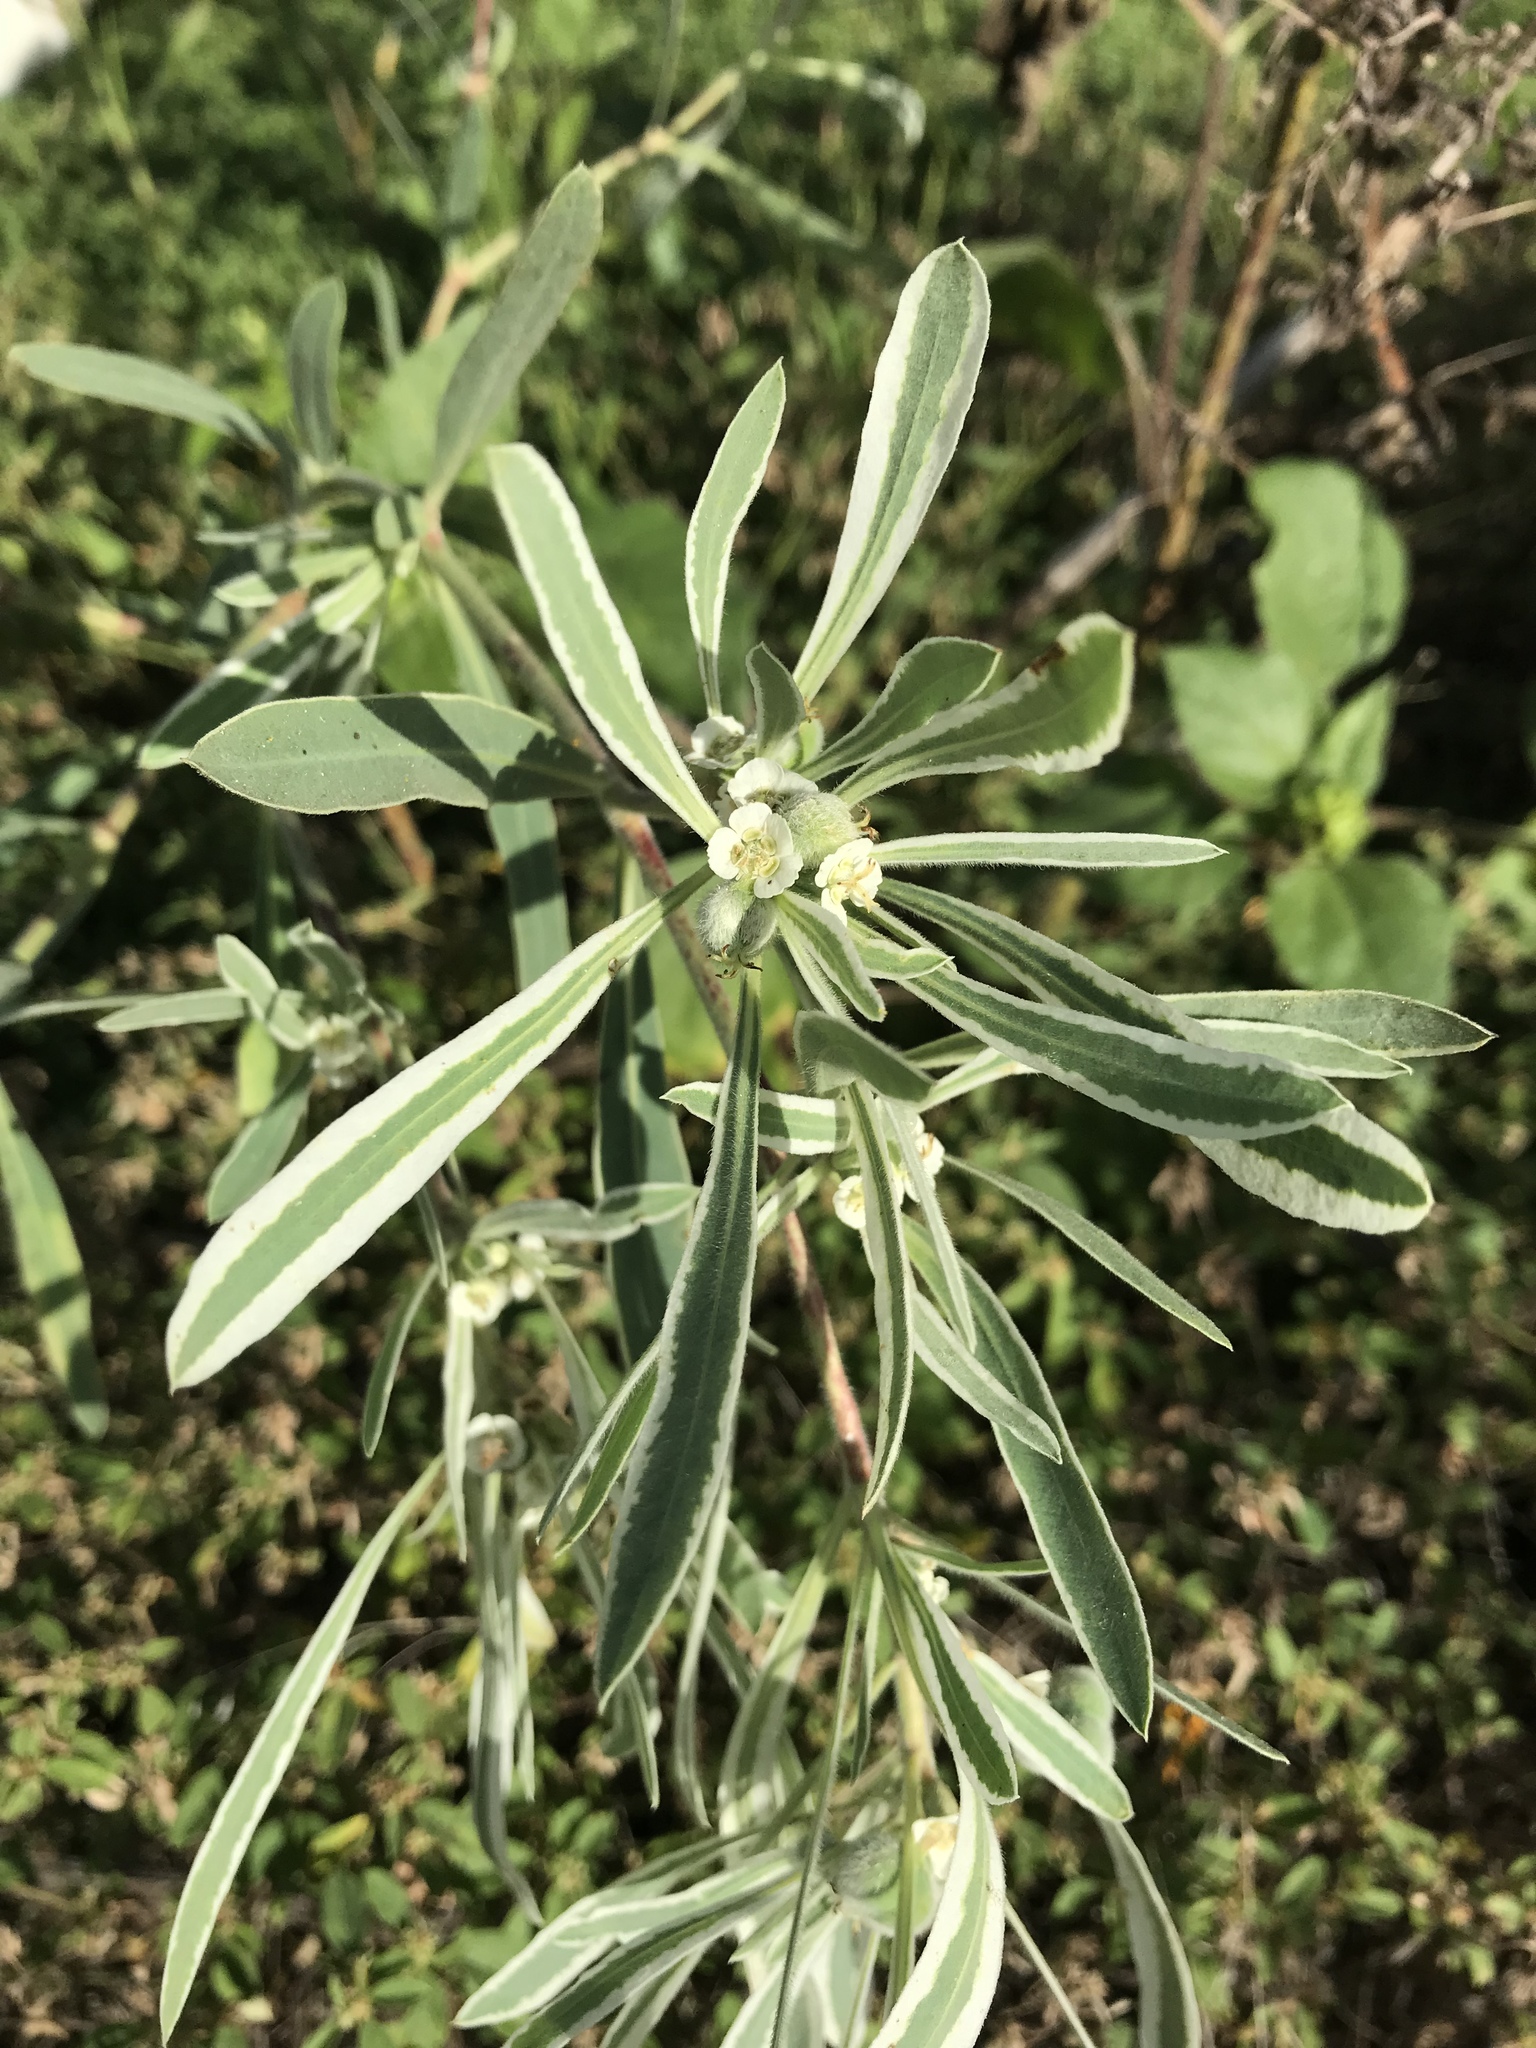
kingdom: Plantae
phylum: Tracheophyta
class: Magnoliopsida
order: Malpighiales
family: Euphorbiaceae
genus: Euphorbia
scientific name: Euphorbia bicolor
